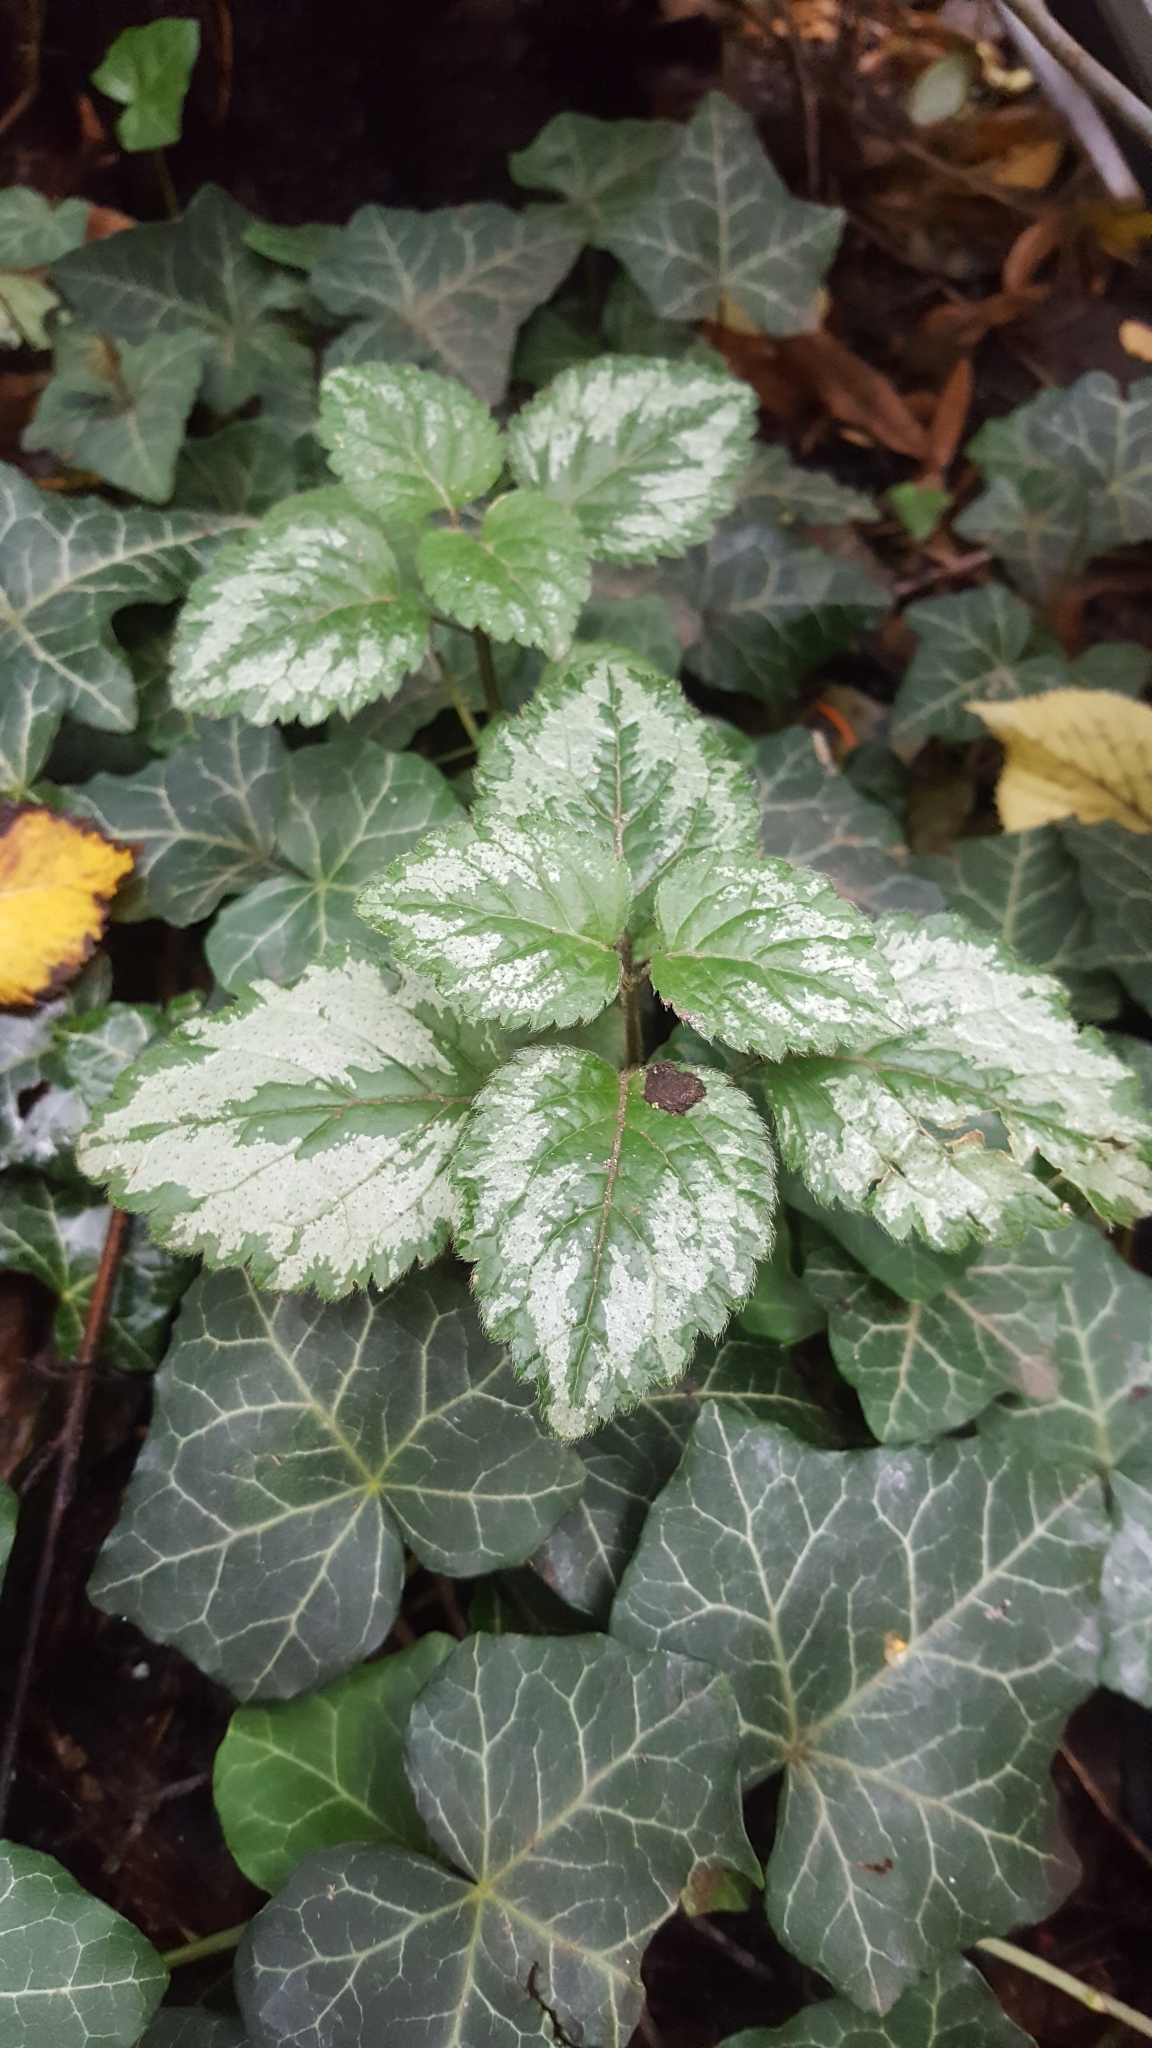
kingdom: Plantae
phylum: Tracheophyta
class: Magnoliopsida
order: Lamiales
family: Lamiaceae
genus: Lamium
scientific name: Lamium galeobdolon
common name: Yellow archangel
